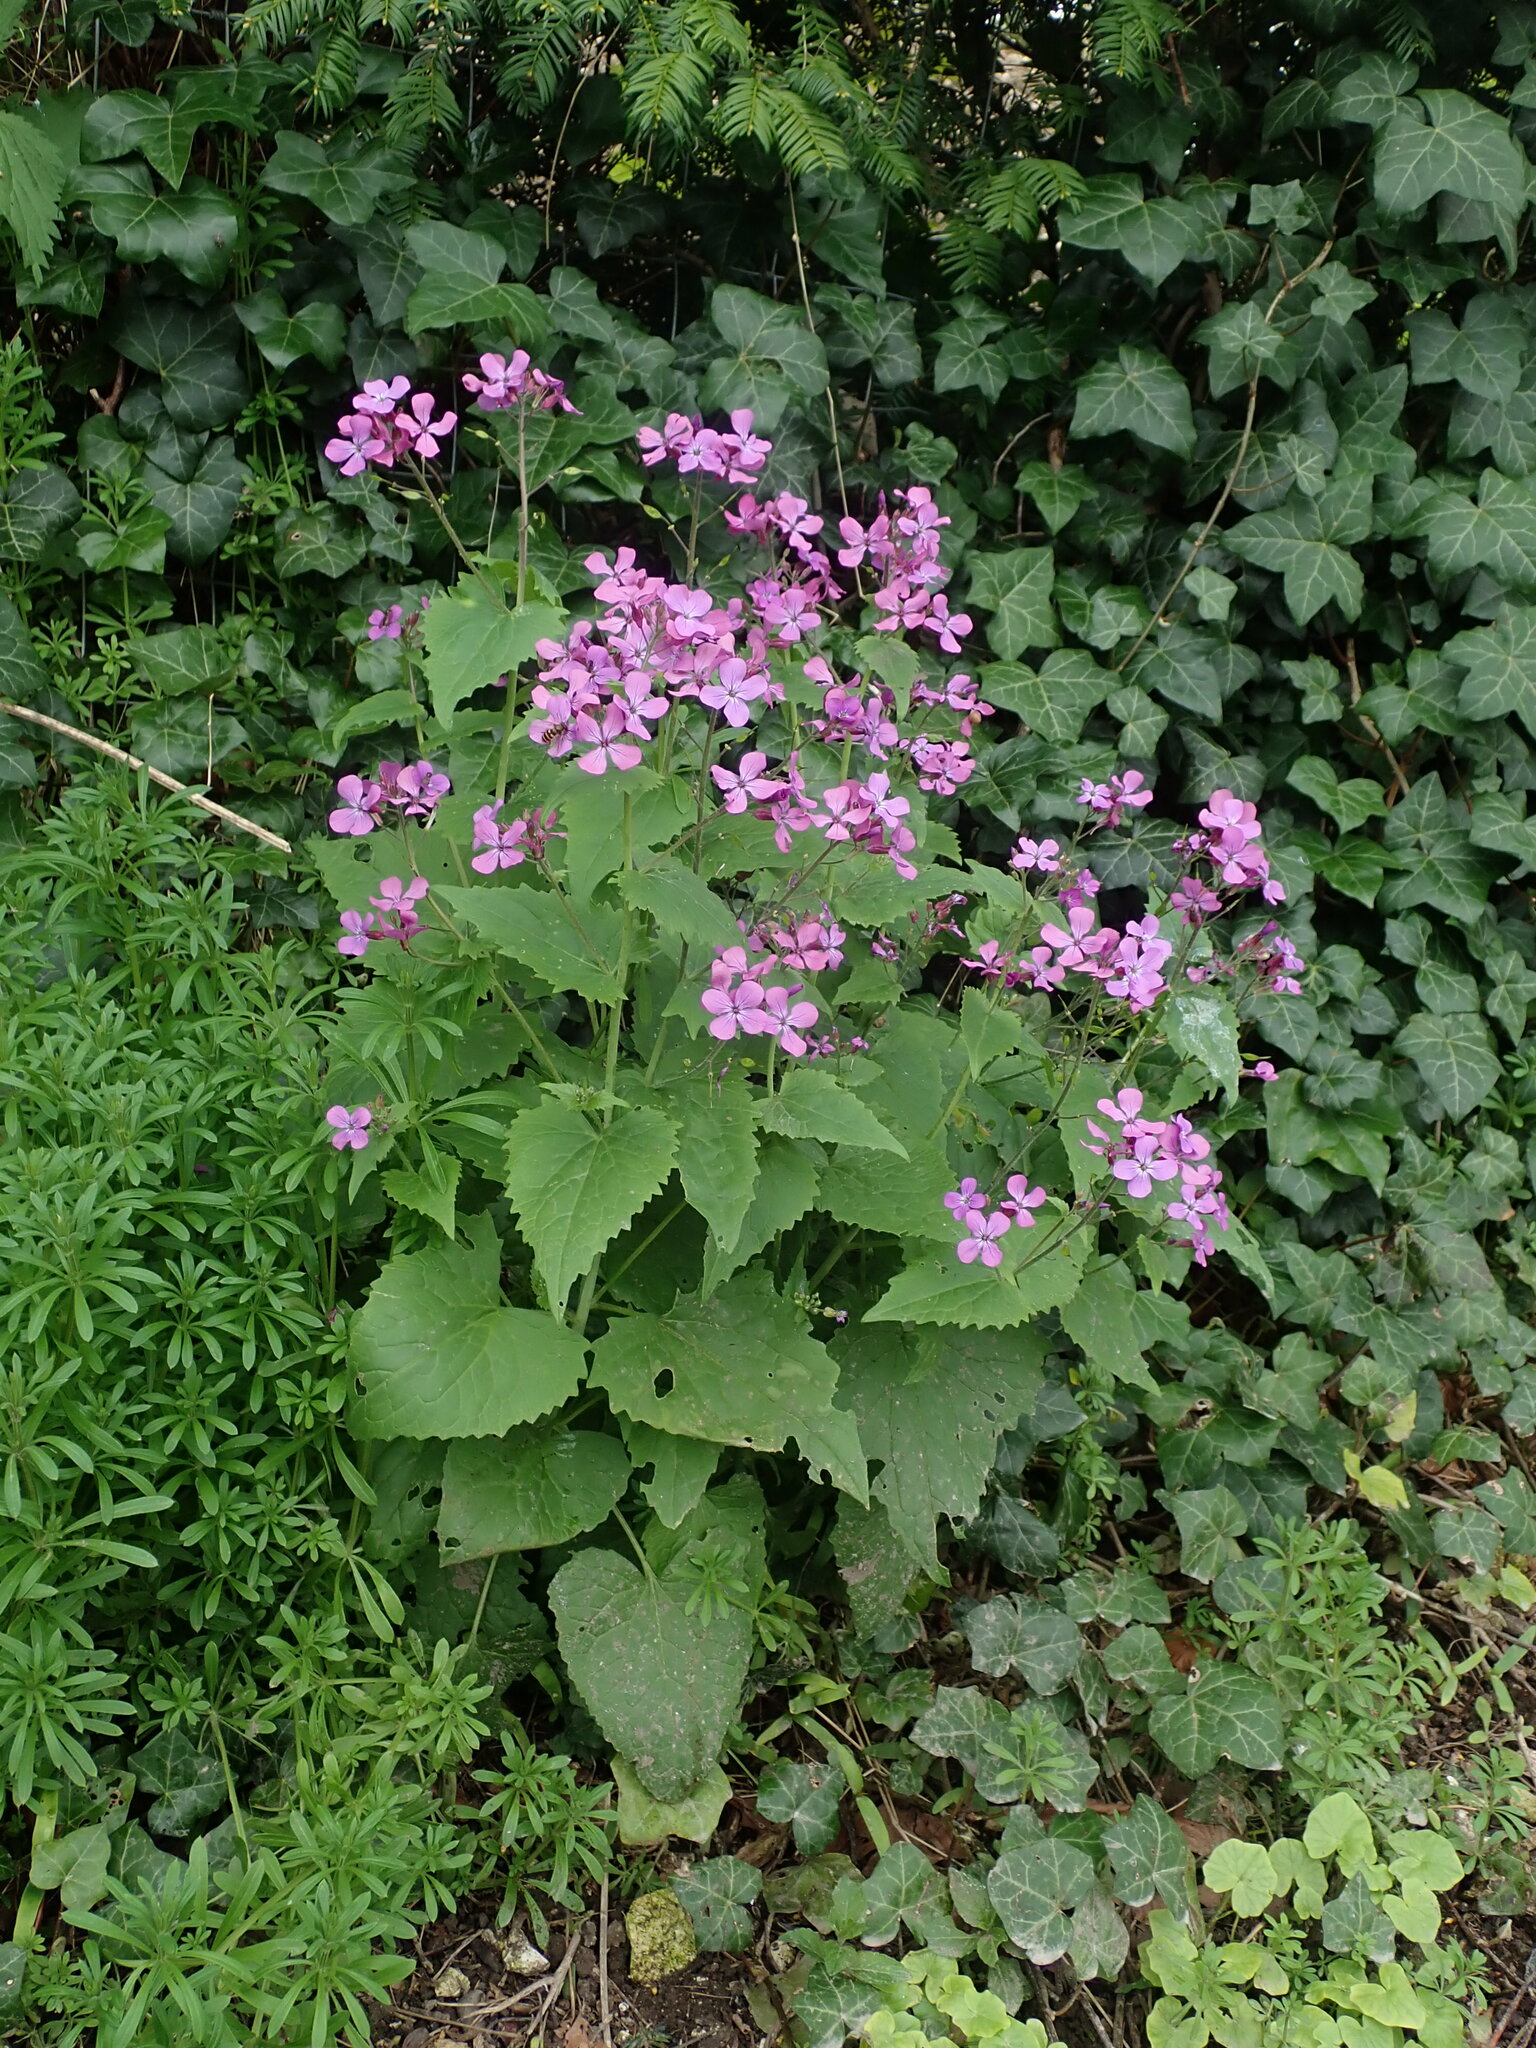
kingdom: Plantae
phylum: Tracheophyta
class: Magnoliopsida
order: Brassicales
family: Brassicaceae
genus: Lunaria
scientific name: Lunaria annua
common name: Honesty
